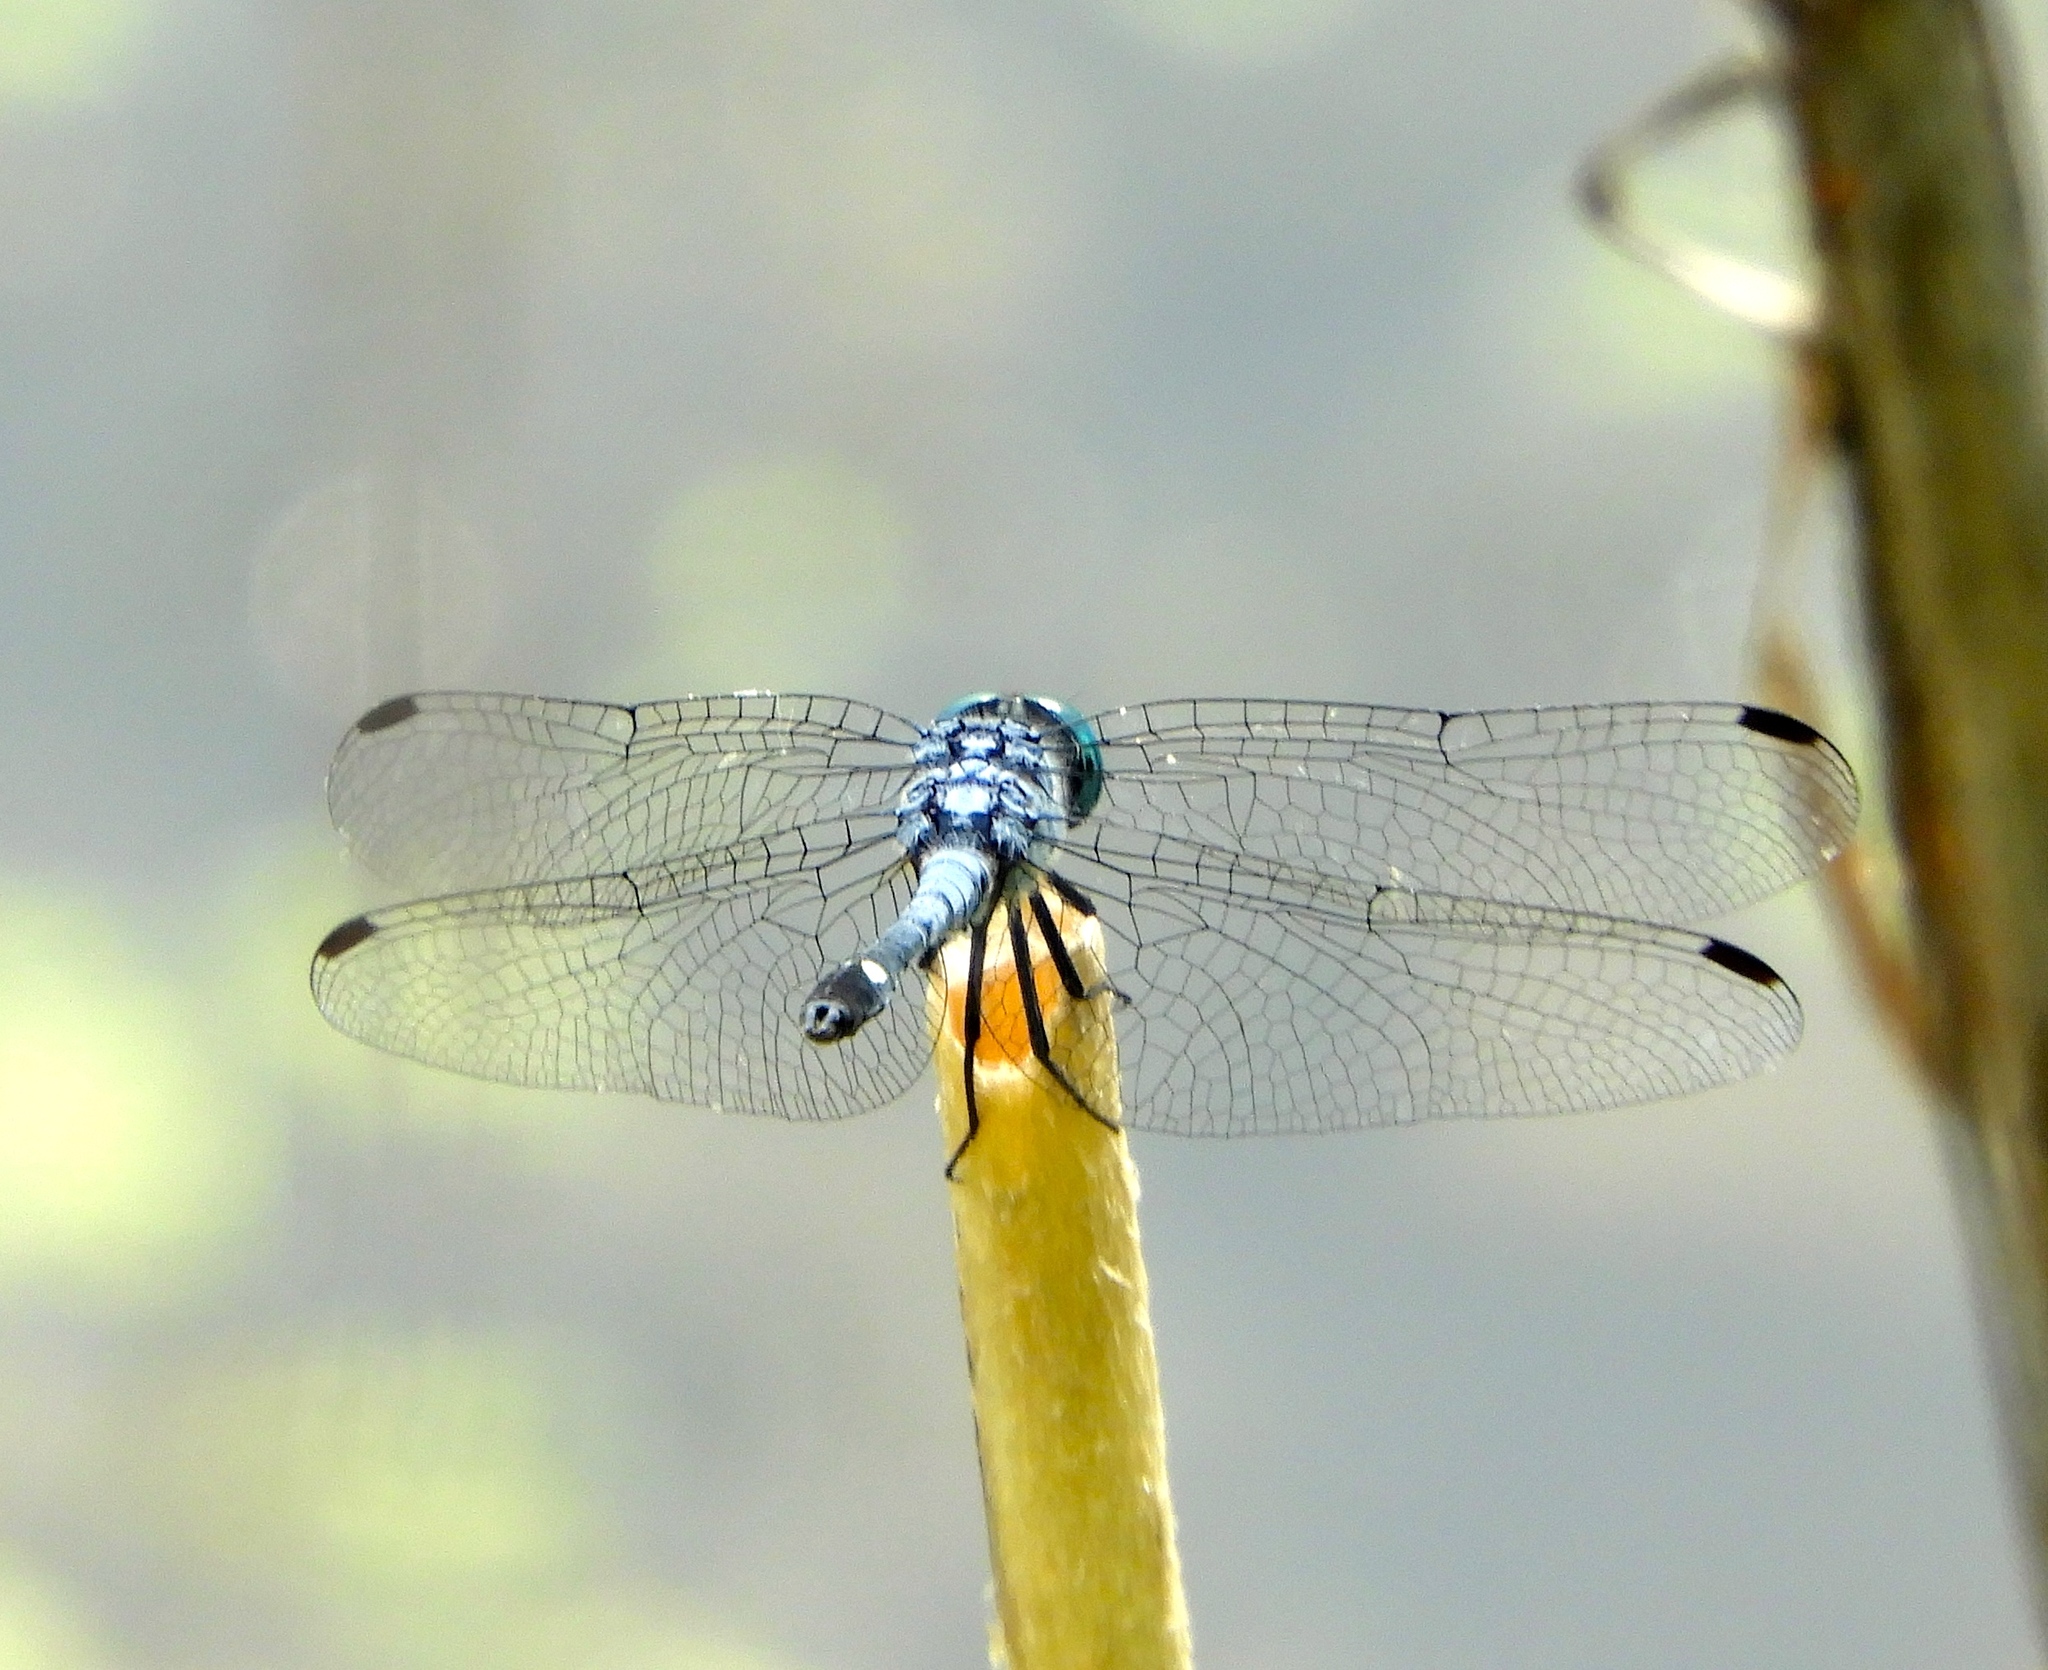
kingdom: Animalia
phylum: Arthropoda
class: Insecta
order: Odonata
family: Libellulidae
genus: Micrathyria
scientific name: Micrathyria aequalis
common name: Spot-tailed dasher
